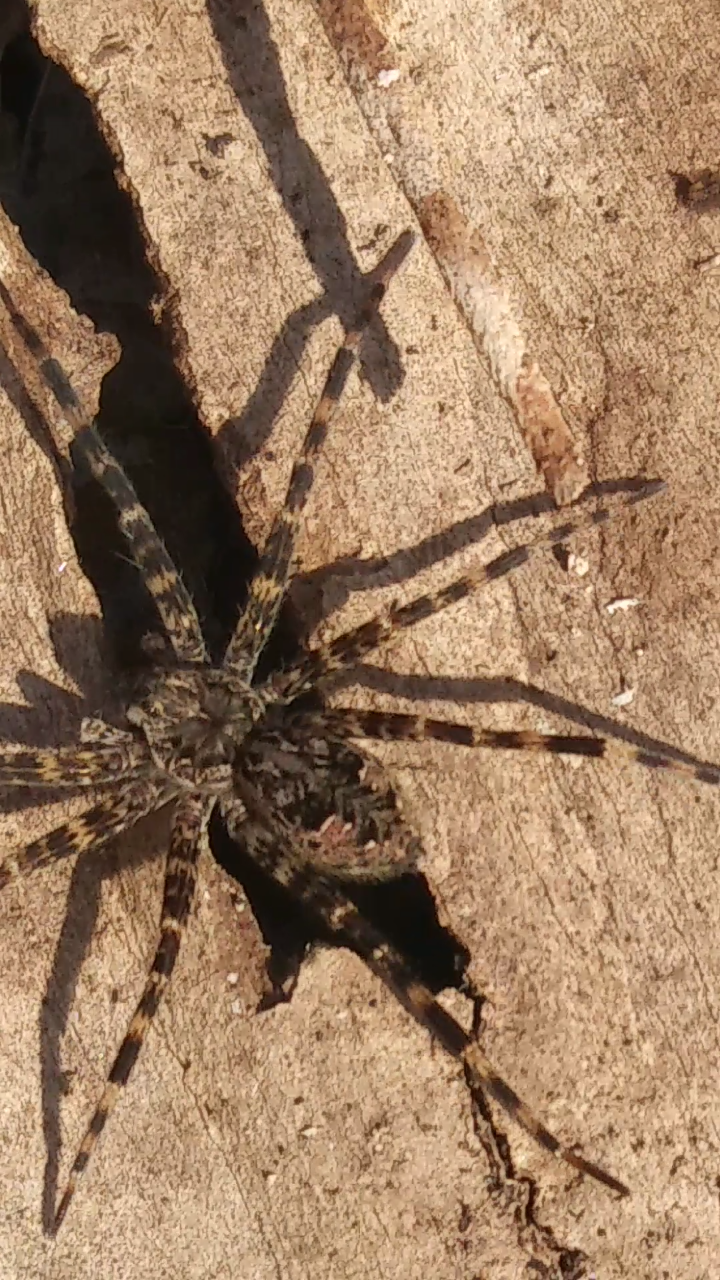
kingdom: Animalia
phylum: Arthropoda
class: Arachnida
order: Araneae
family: Pisauridae
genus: Dolomedes
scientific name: Dolomedes tenebrosus
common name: Dark fishing spider
